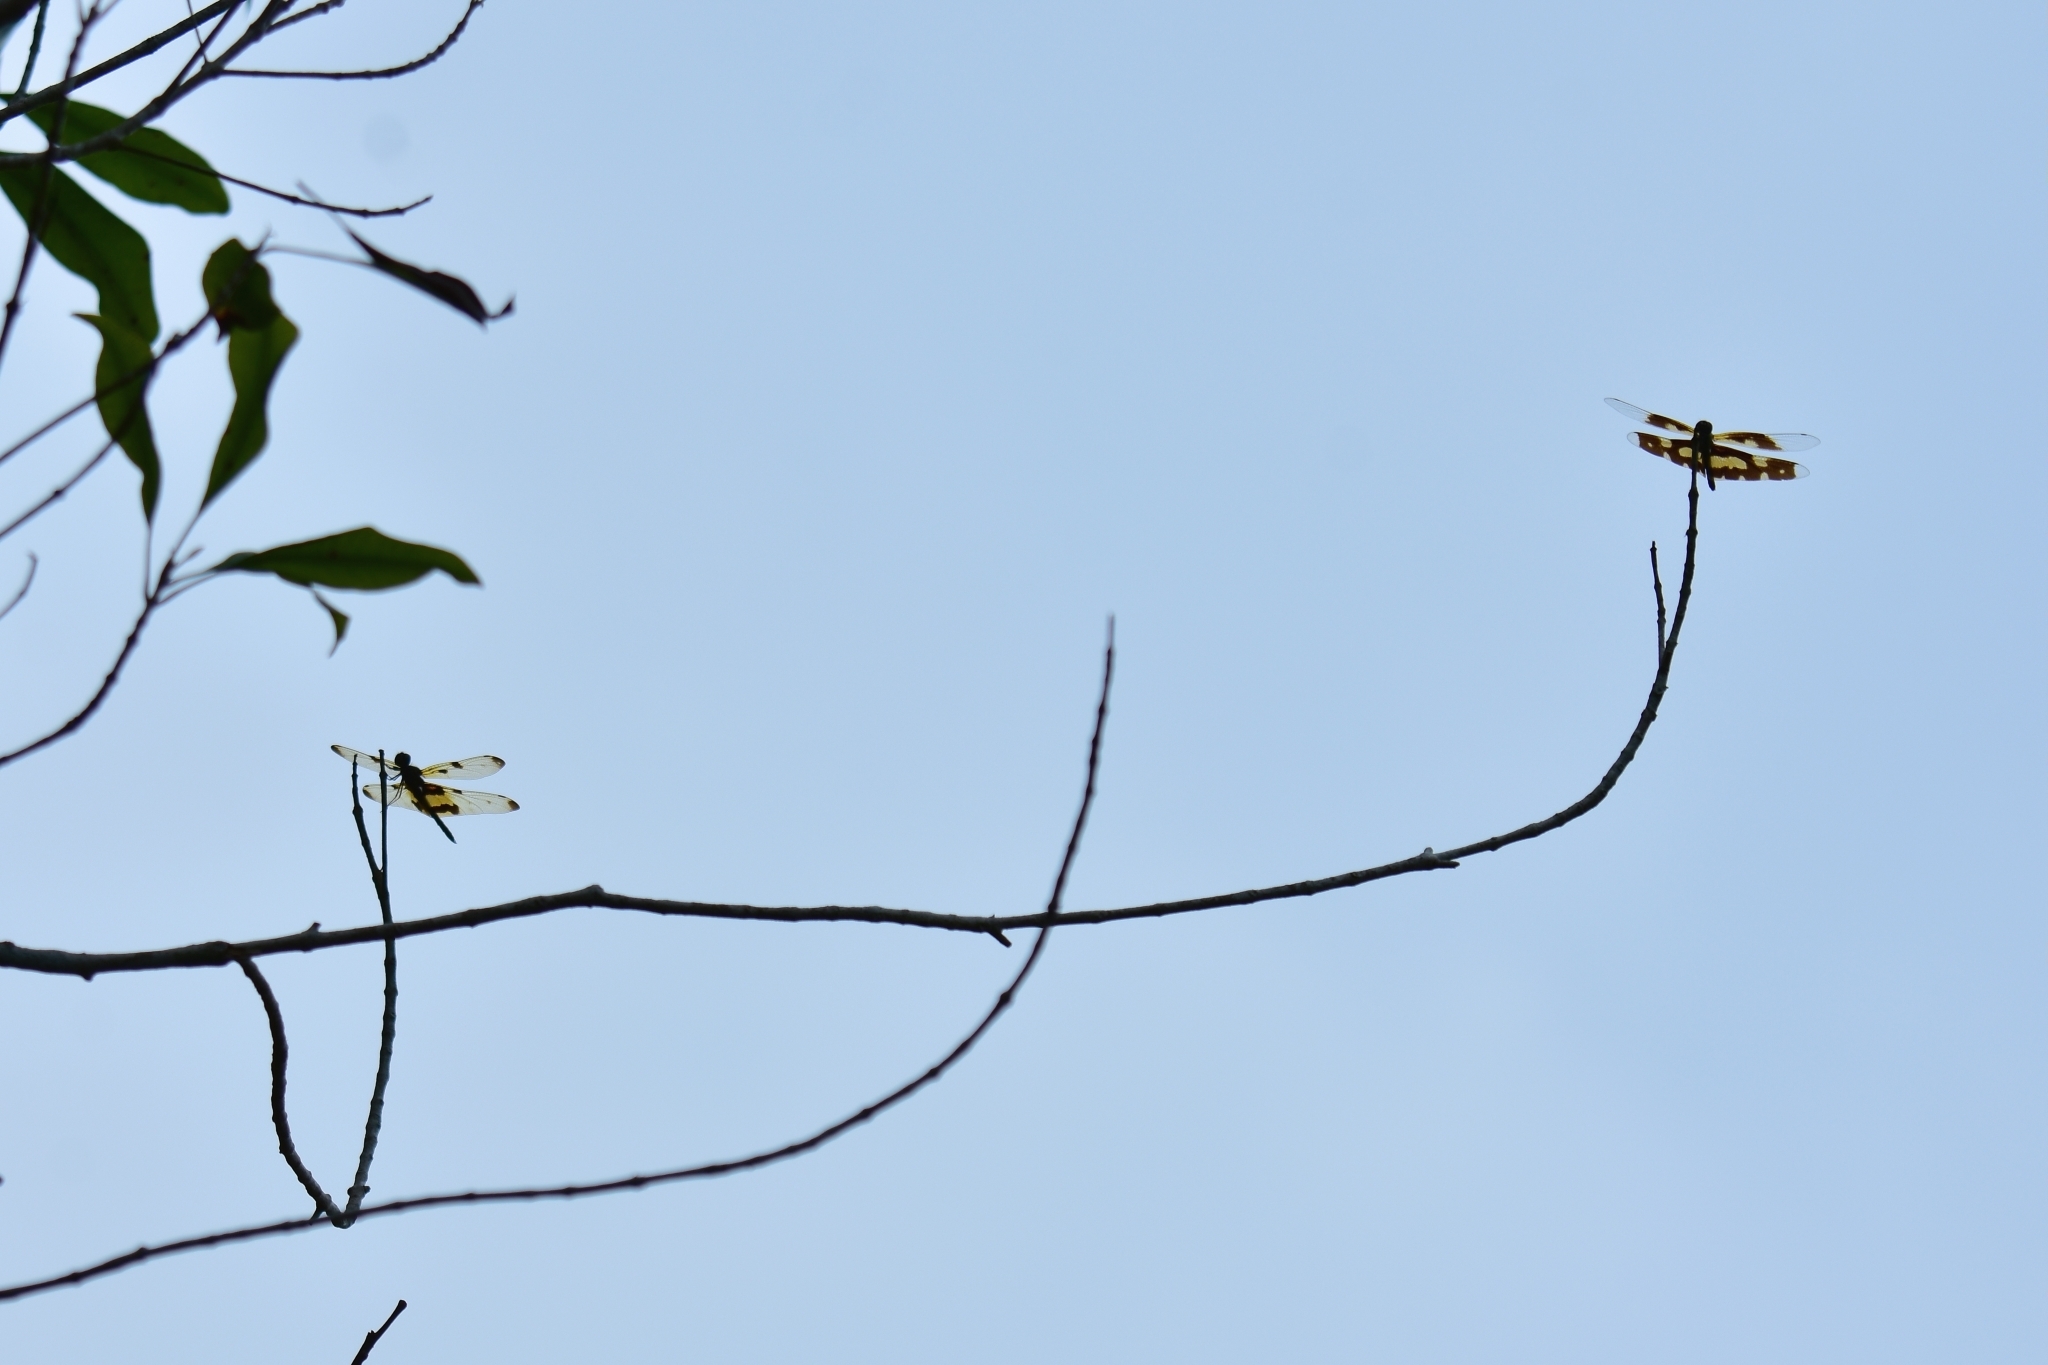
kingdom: Animalia
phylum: Arthropoda
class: Insecta
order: Odonata
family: Libellulidae
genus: Rhyothemis
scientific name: Rhyothemis variegata
